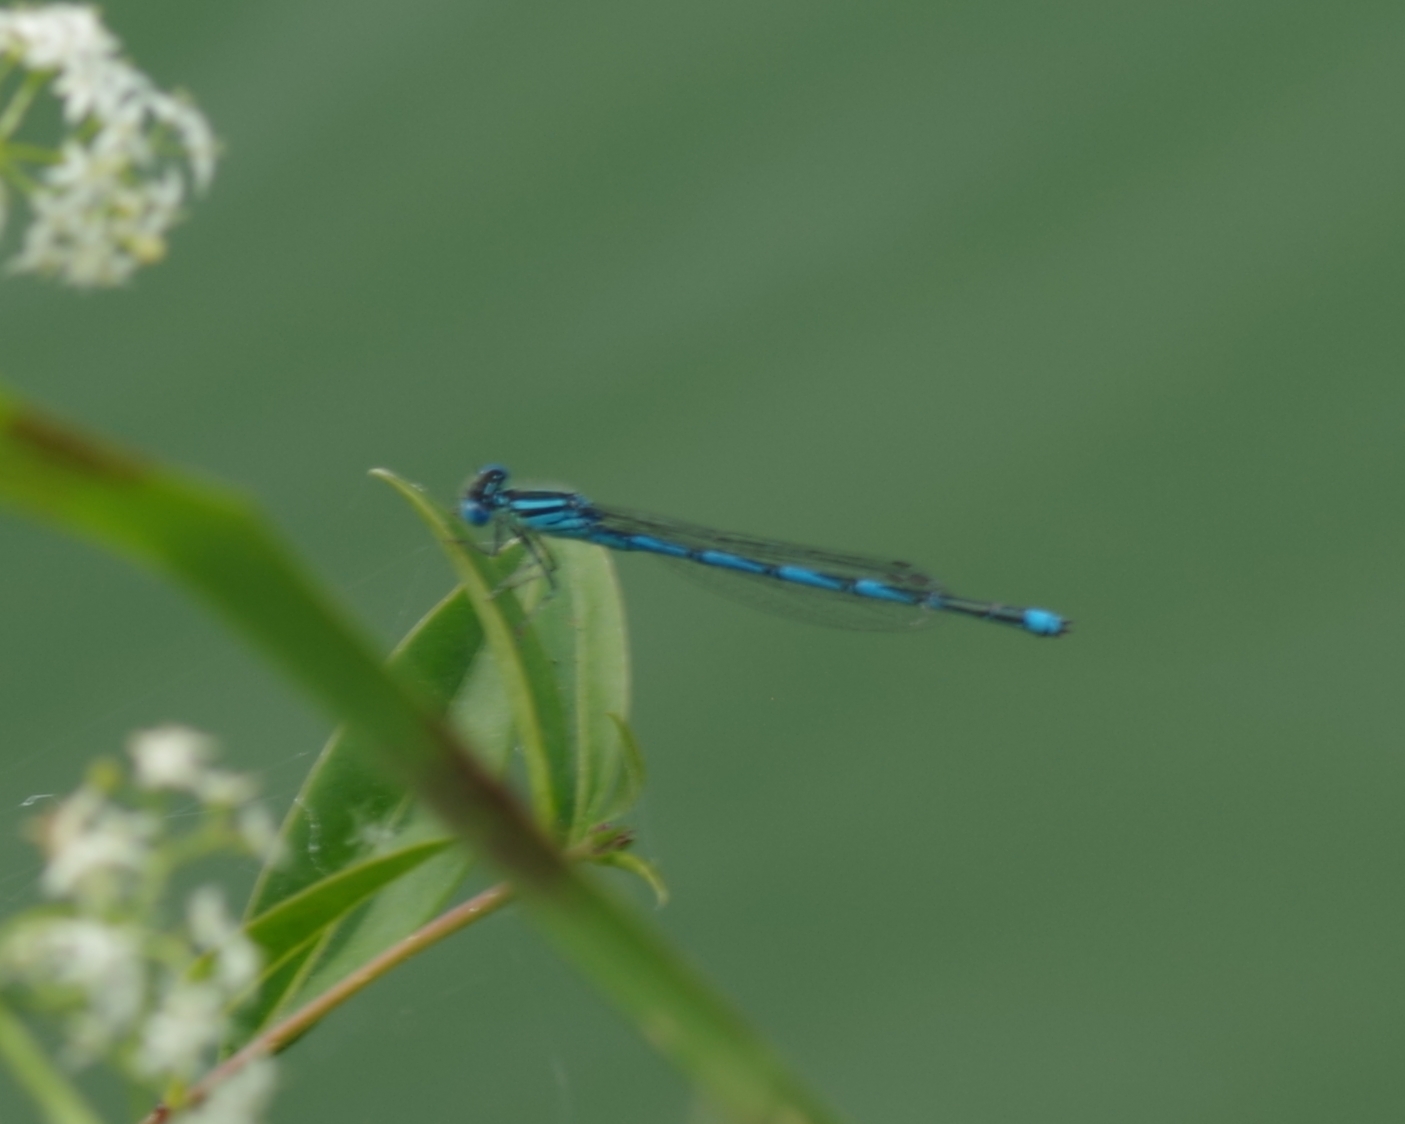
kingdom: Animalia
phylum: Arthropoda
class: Insecta
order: Odonata
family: Coenagrionidae
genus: Erythromma
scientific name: Erythromma lindenii
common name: Blue-eye
